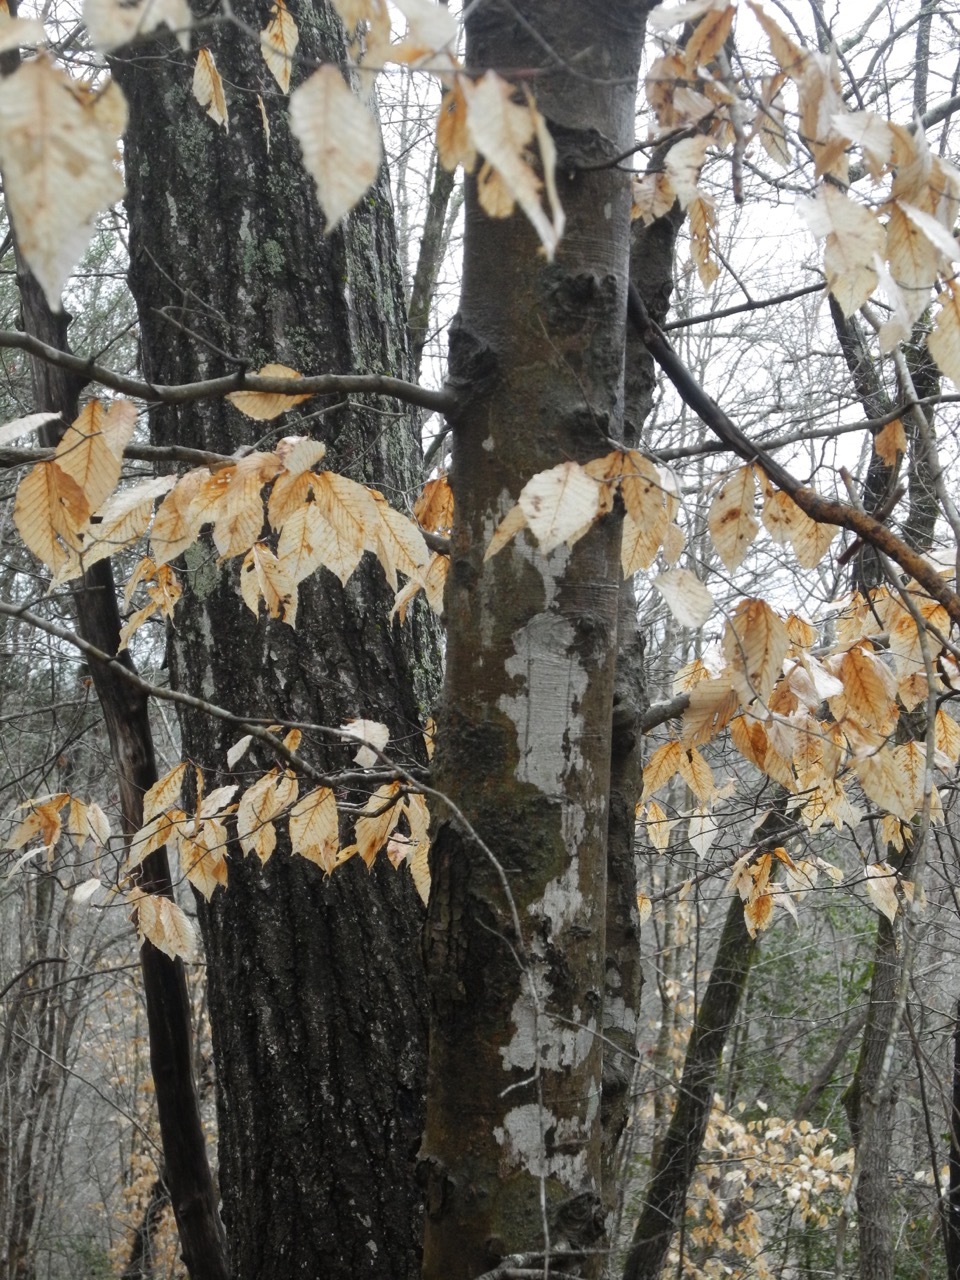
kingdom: Plantae
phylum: Tracheophyta
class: Magnoliopsida
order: Fagales
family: Fagaceae
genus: Fagus
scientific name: Fagus grandifolia
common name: American beech
